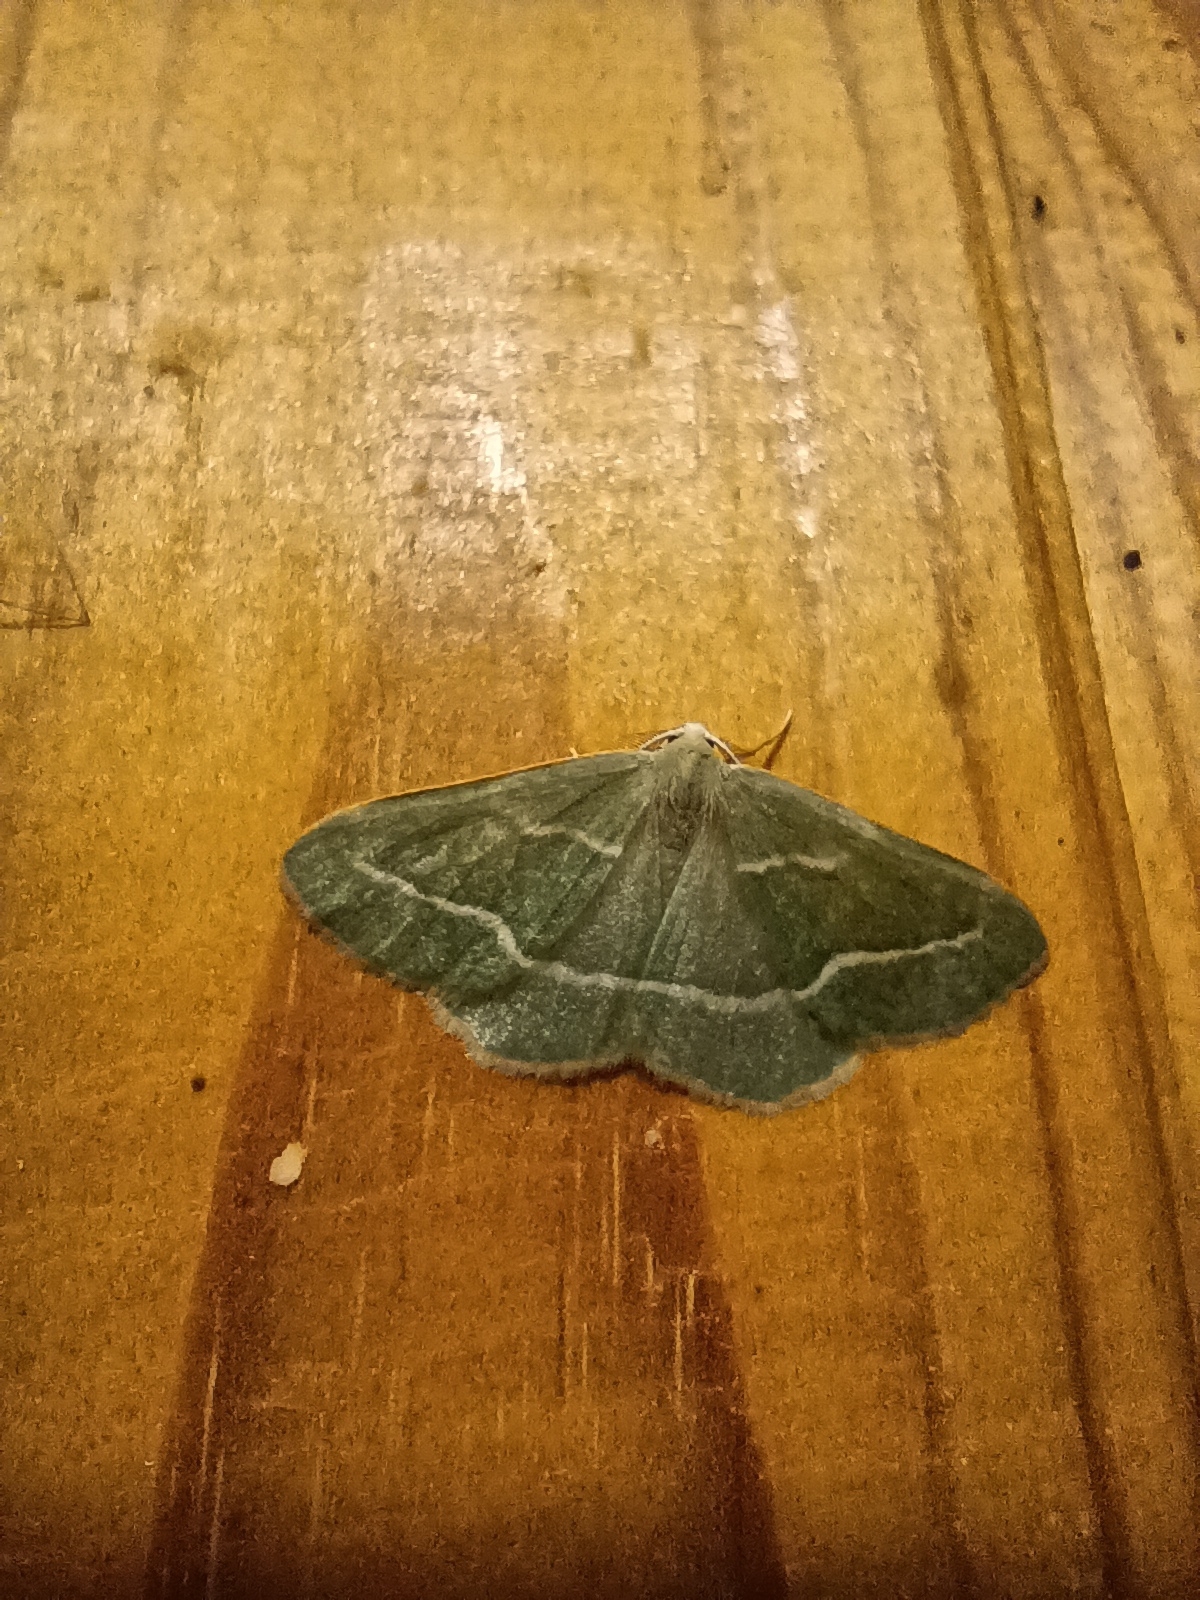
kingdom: Animalia
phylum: Arthropoda
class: Insecta
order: Lepidoptera
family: Geometridae
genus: Hylaea
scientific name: Hylaea fasciaria
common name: Barred red
